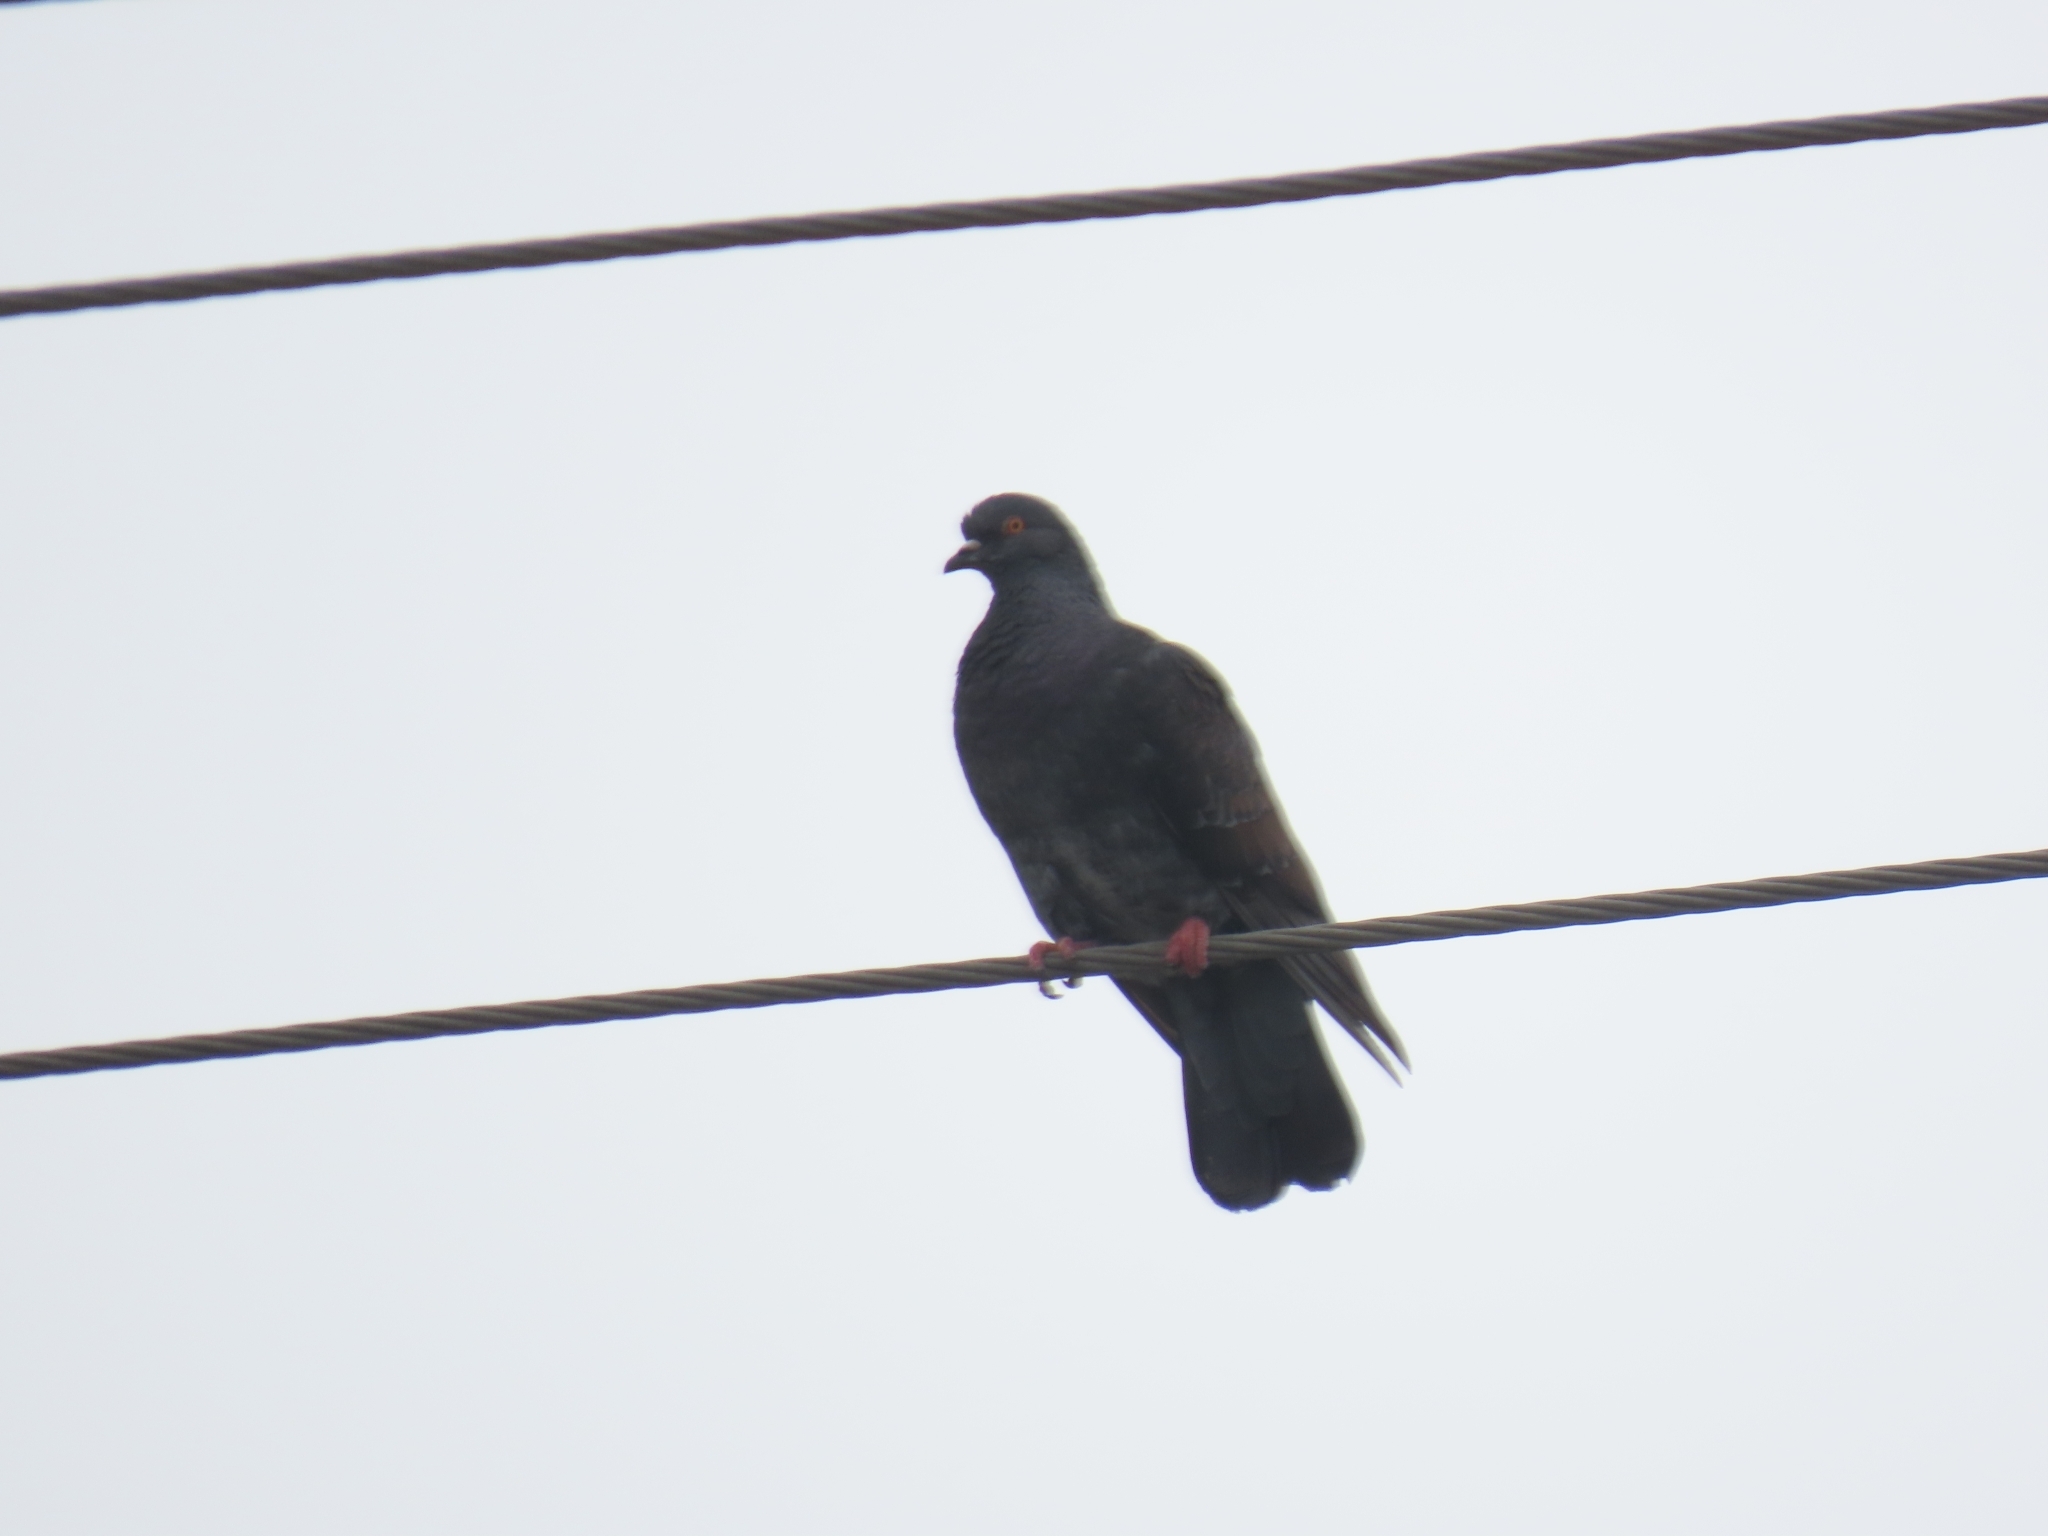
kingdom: Animalia
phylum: Chordata
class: Aves
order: Columbiformes
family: Columbidae
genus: Columba
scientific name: Columba livia
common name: Rock pigeon
